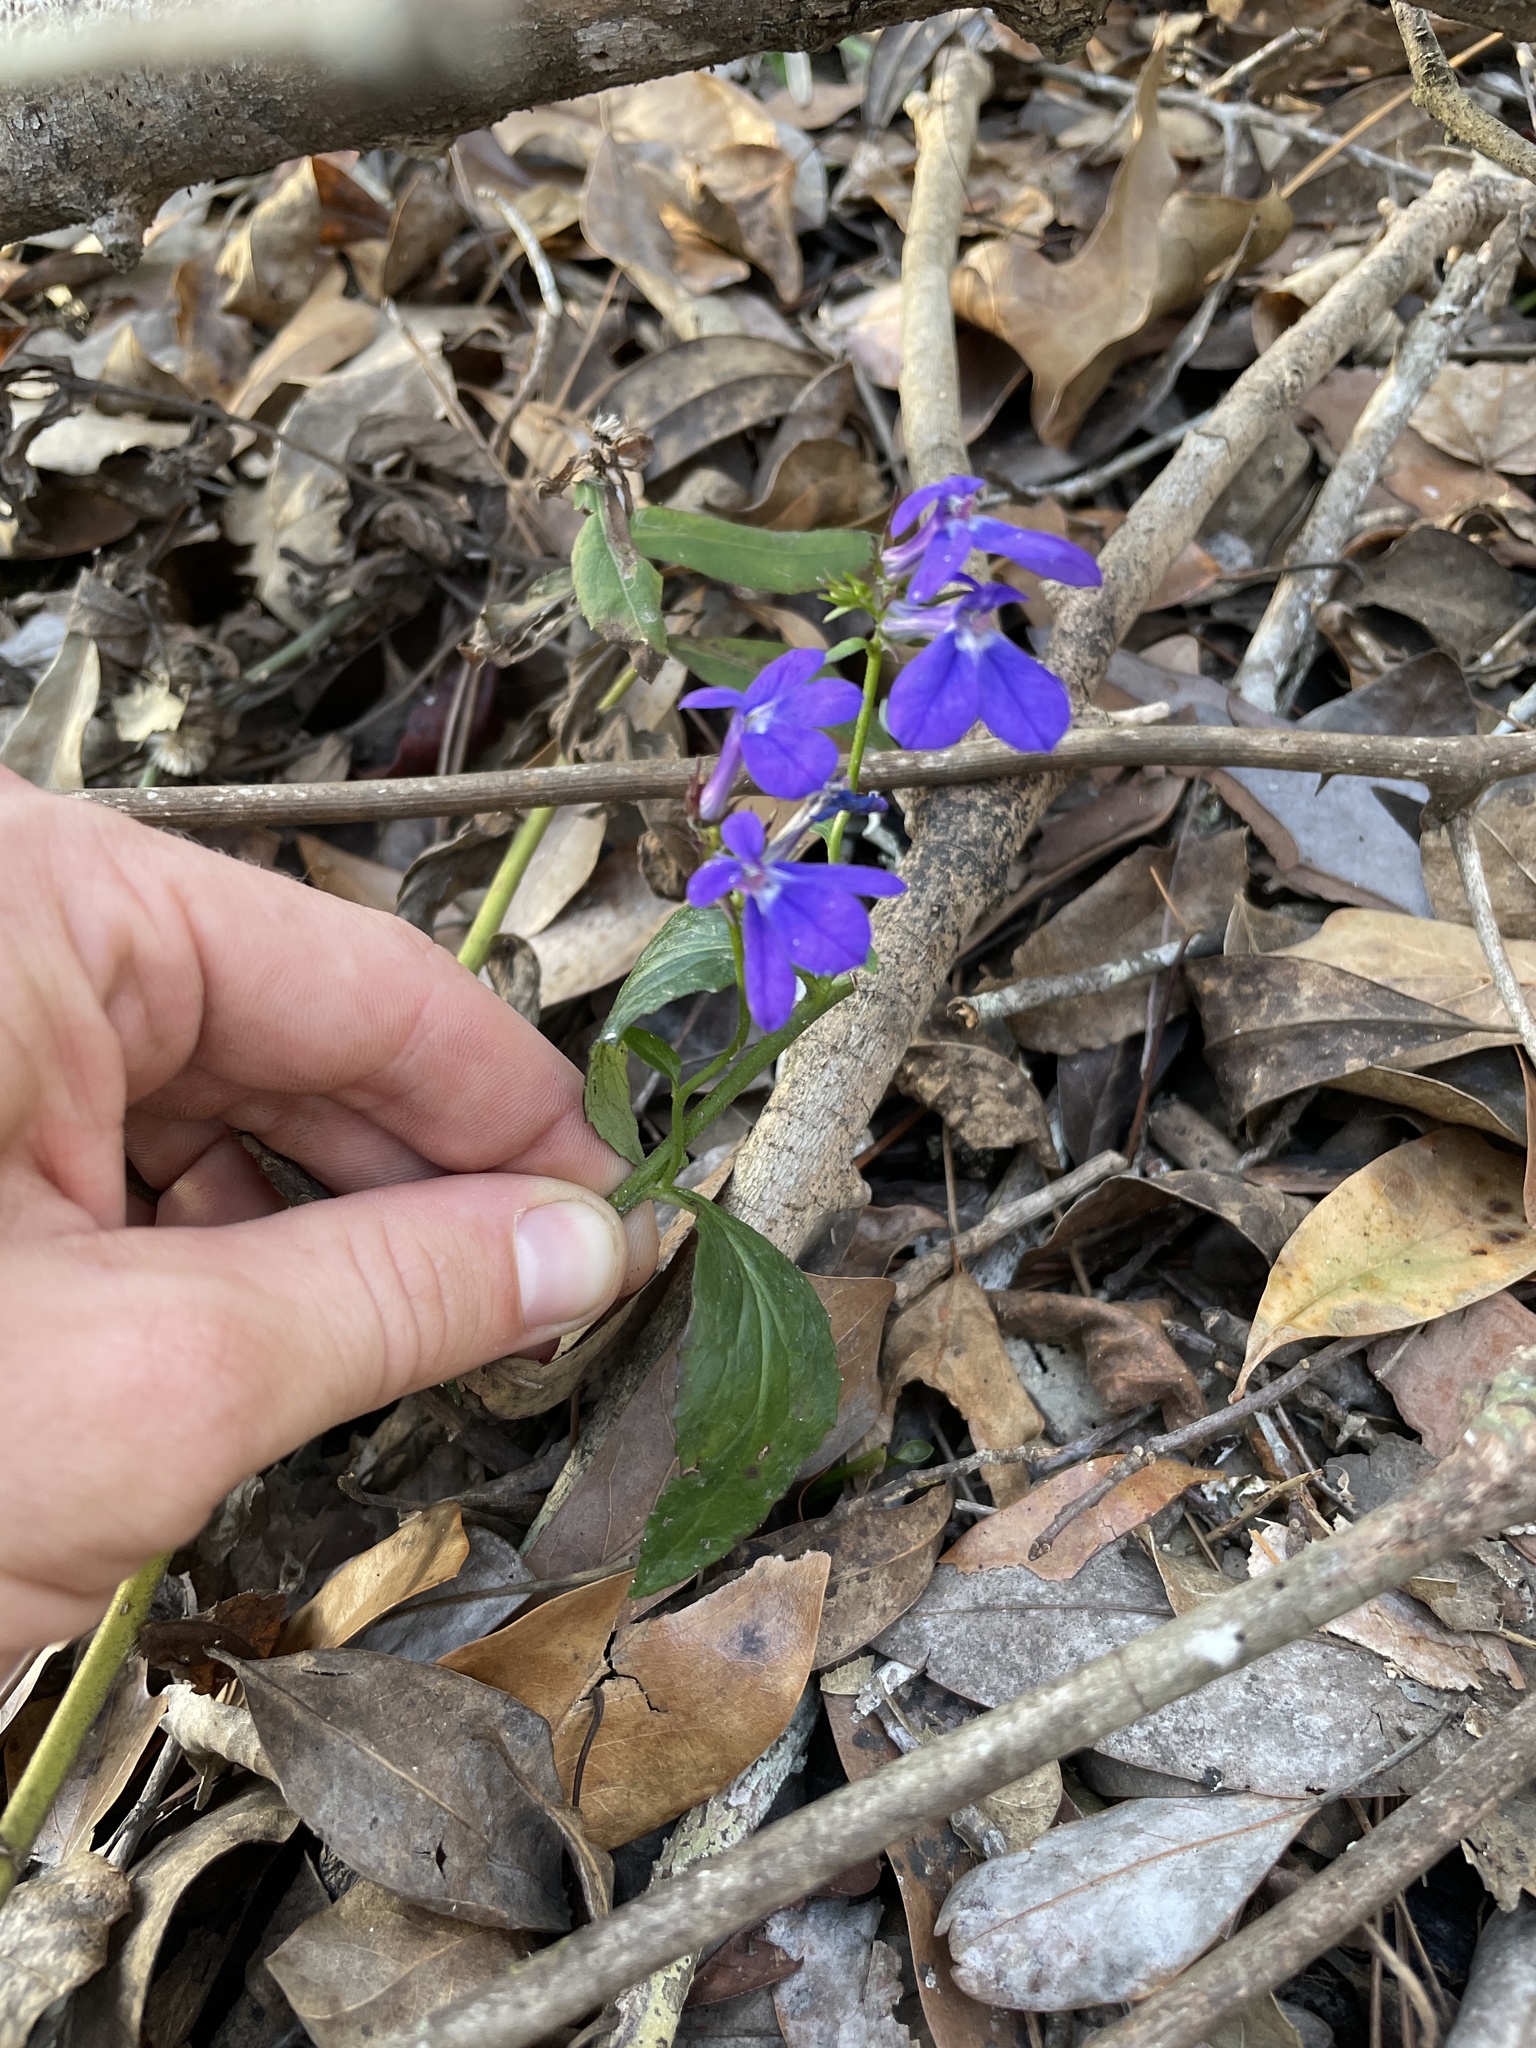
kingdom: Plantae
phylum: Tracheophyta
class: Magnoliopsida
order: Asterales
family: Campanulaceae
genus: Lobelia
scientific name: Lobelia puberula
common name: Purple dewdrop
